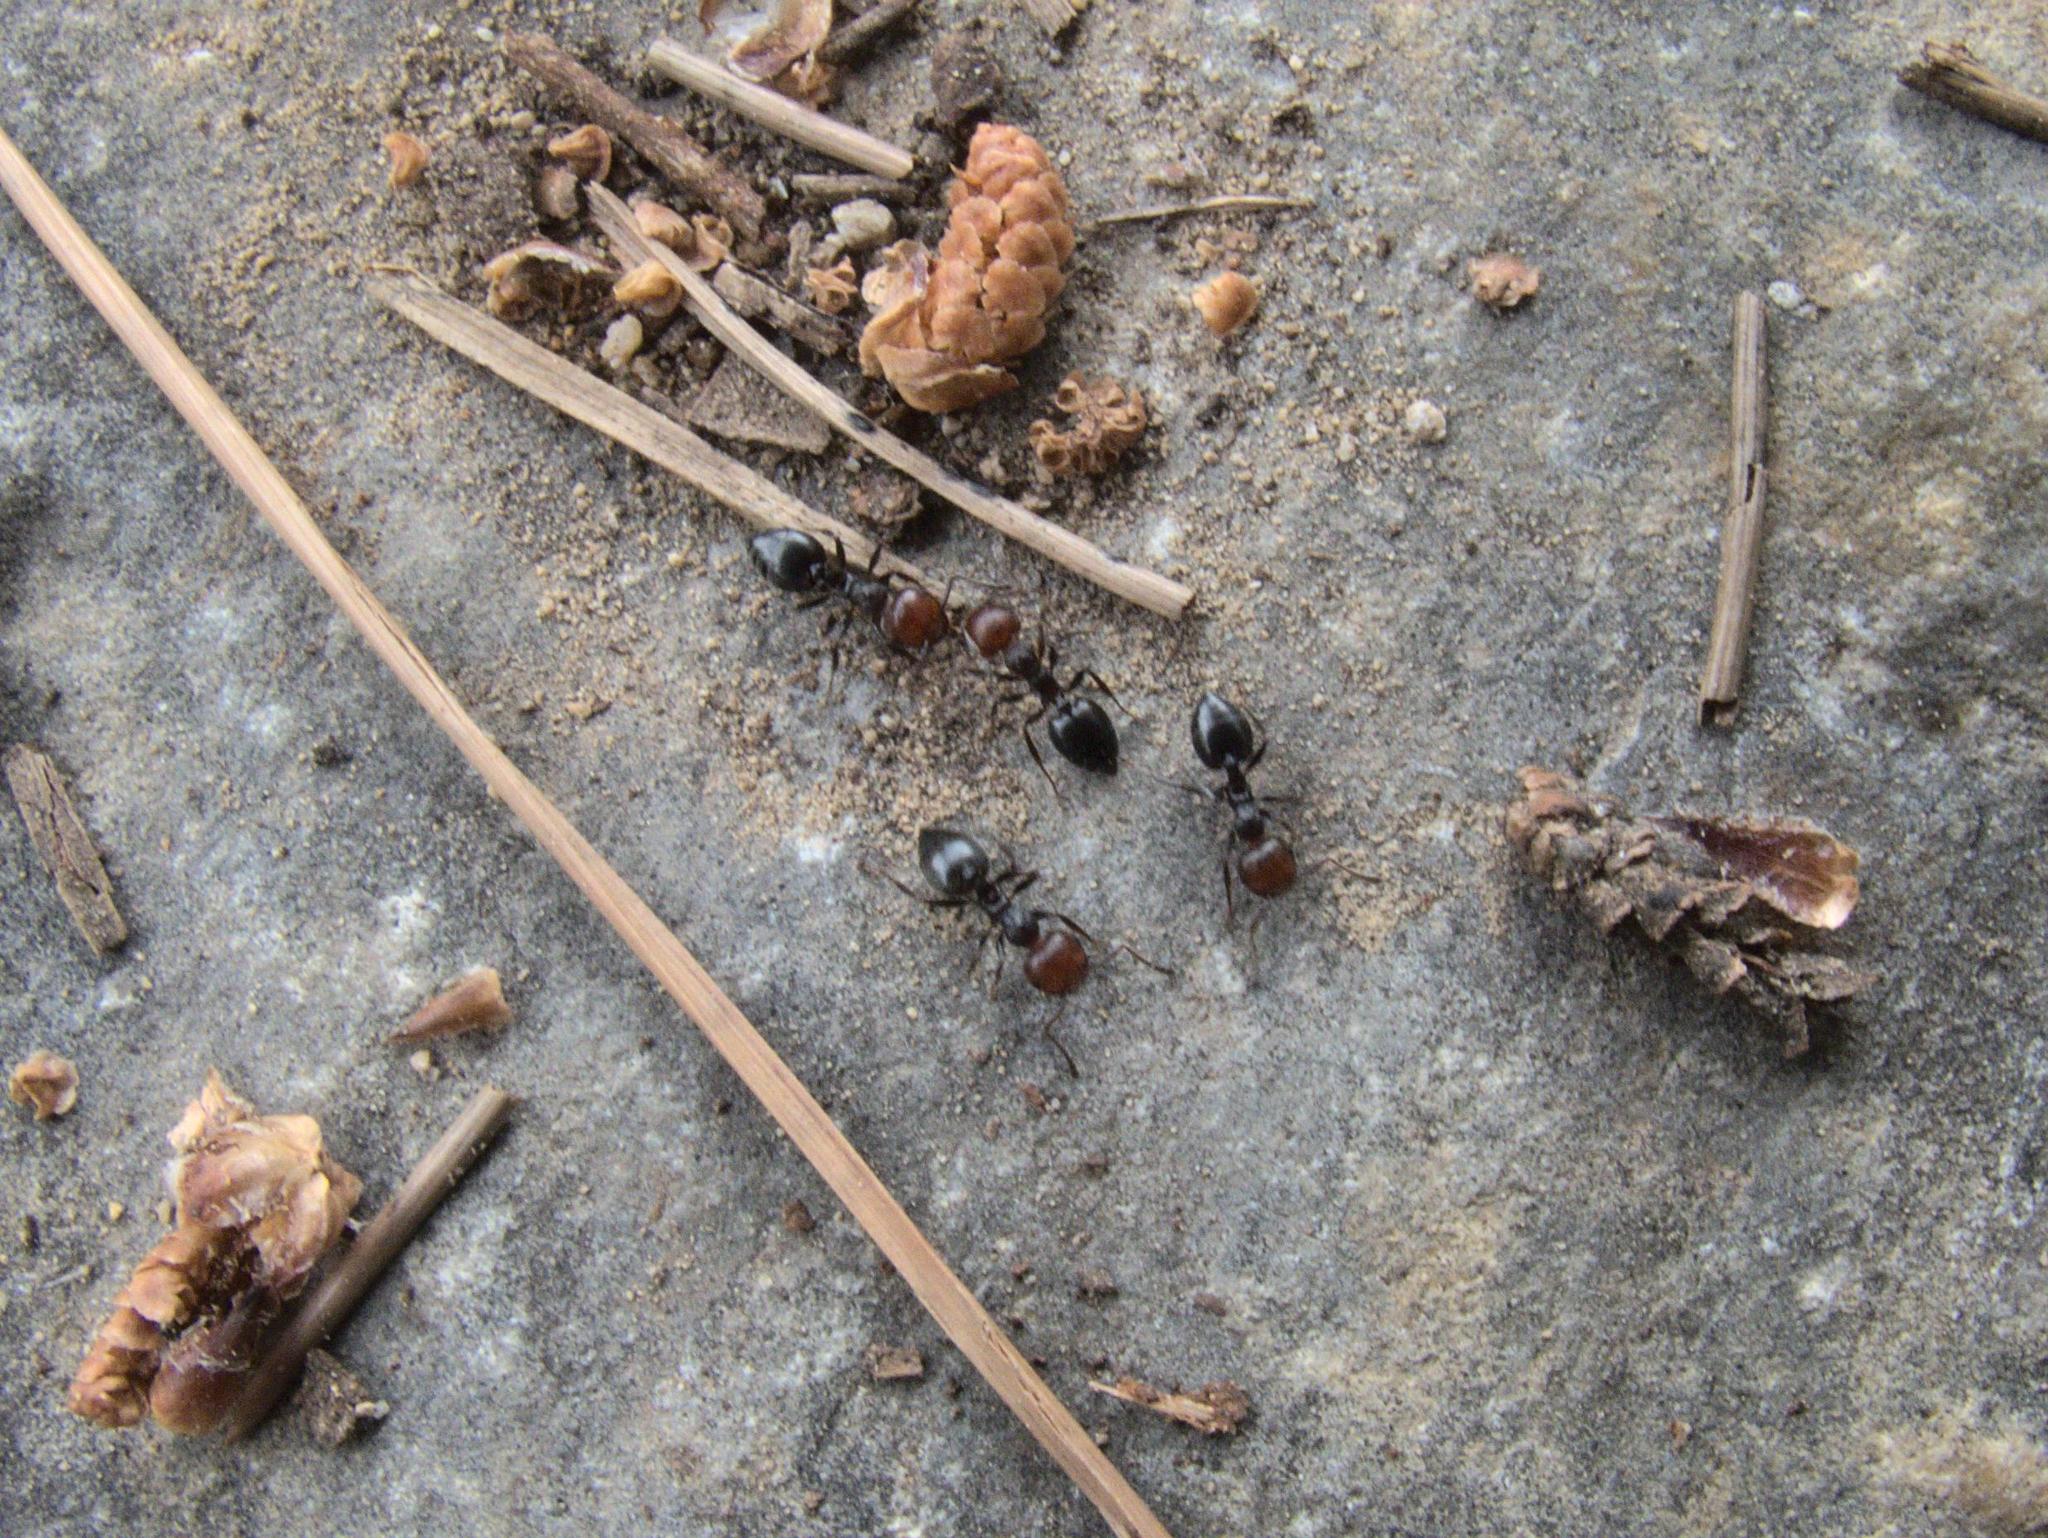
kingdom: Animalia
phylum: Arthropoda
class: Insecta
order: Hymenoptera
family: Formicidae
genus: Crematogaster
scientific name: Crematogaster scutellaris
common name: Fourmi du liège
